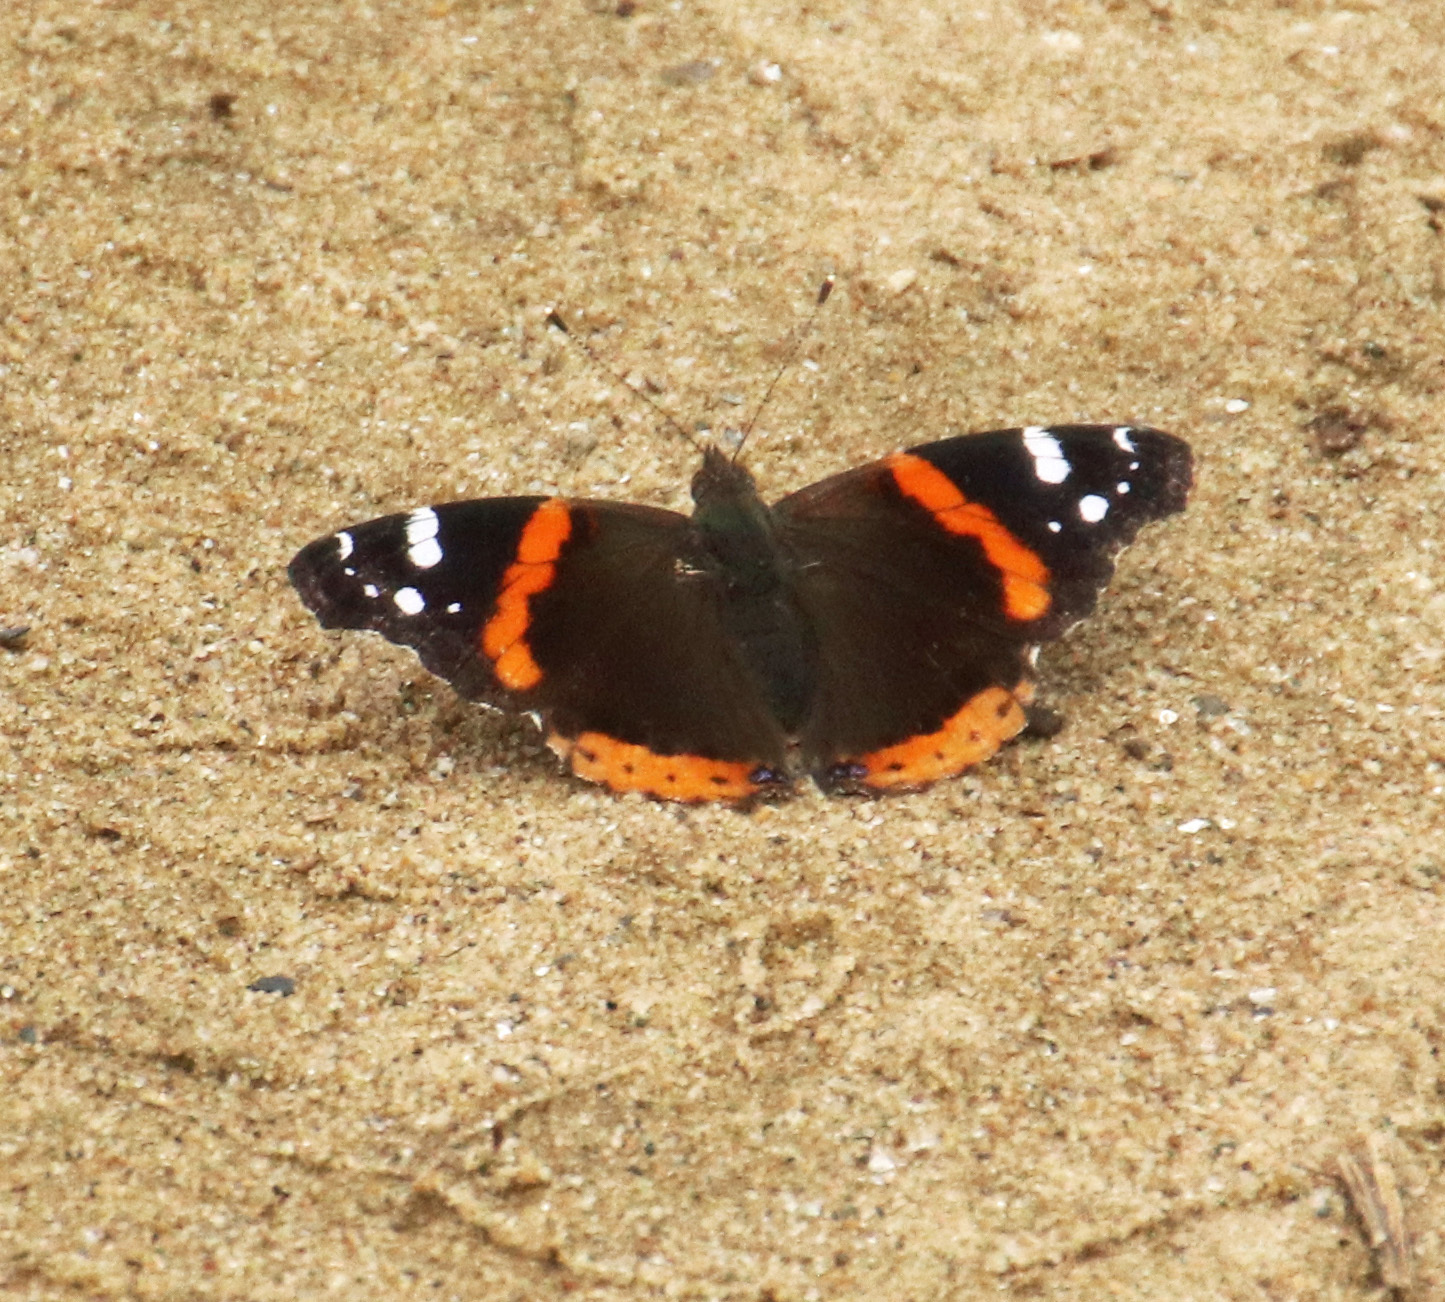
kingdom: Animalia
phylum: Arthropoda
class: Insecta
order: Lepidoptera
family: Nymphalidae
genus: Vanessa
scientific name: Vanessa atalanta
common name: Red admiral
